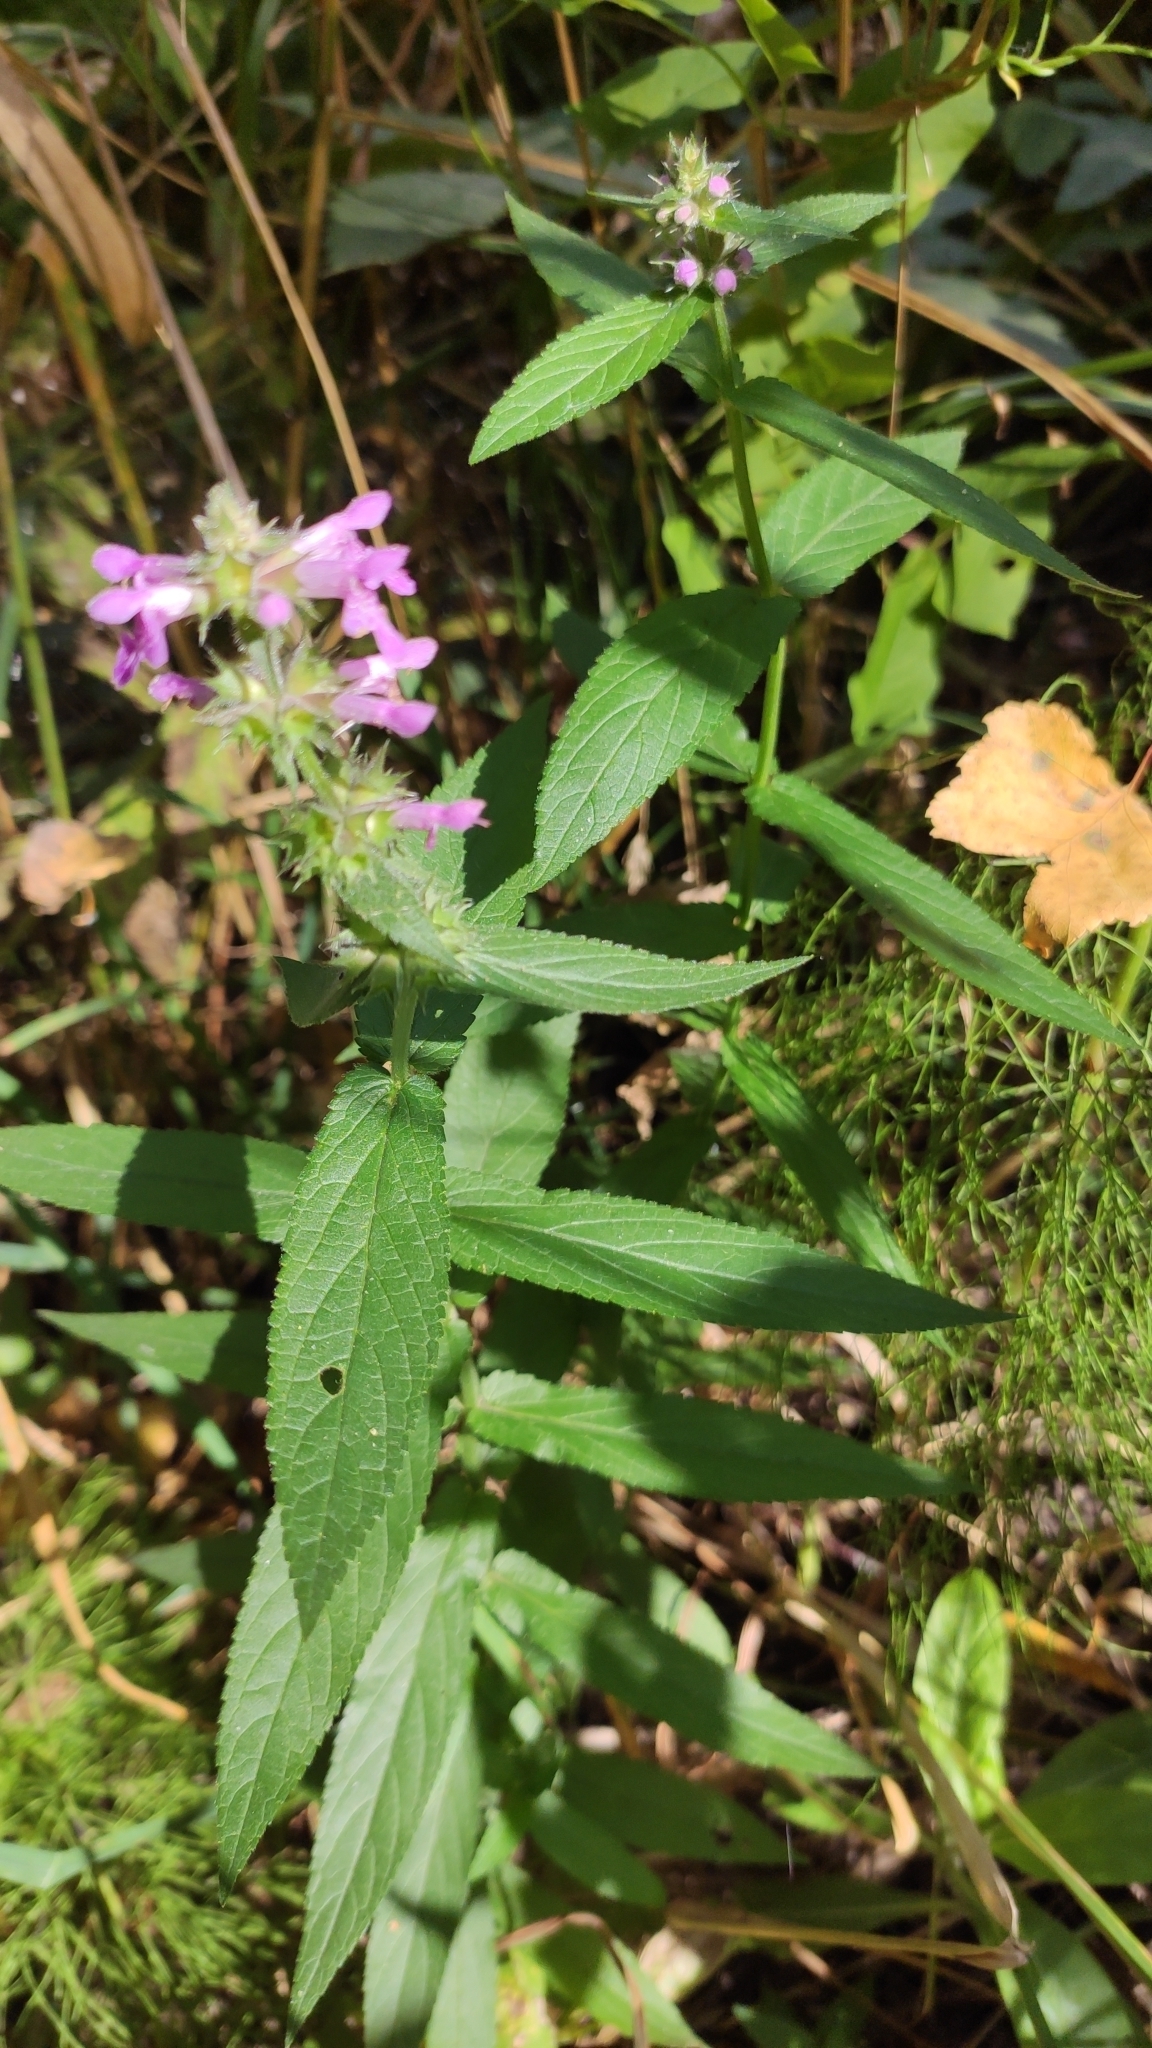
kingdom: Plantae
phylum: Tracheophyta
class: Magnoliopsida
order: Lamiales
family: Lamiaceae
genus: Stachys
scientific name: Stachys palustris
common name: Marsh woundwort
